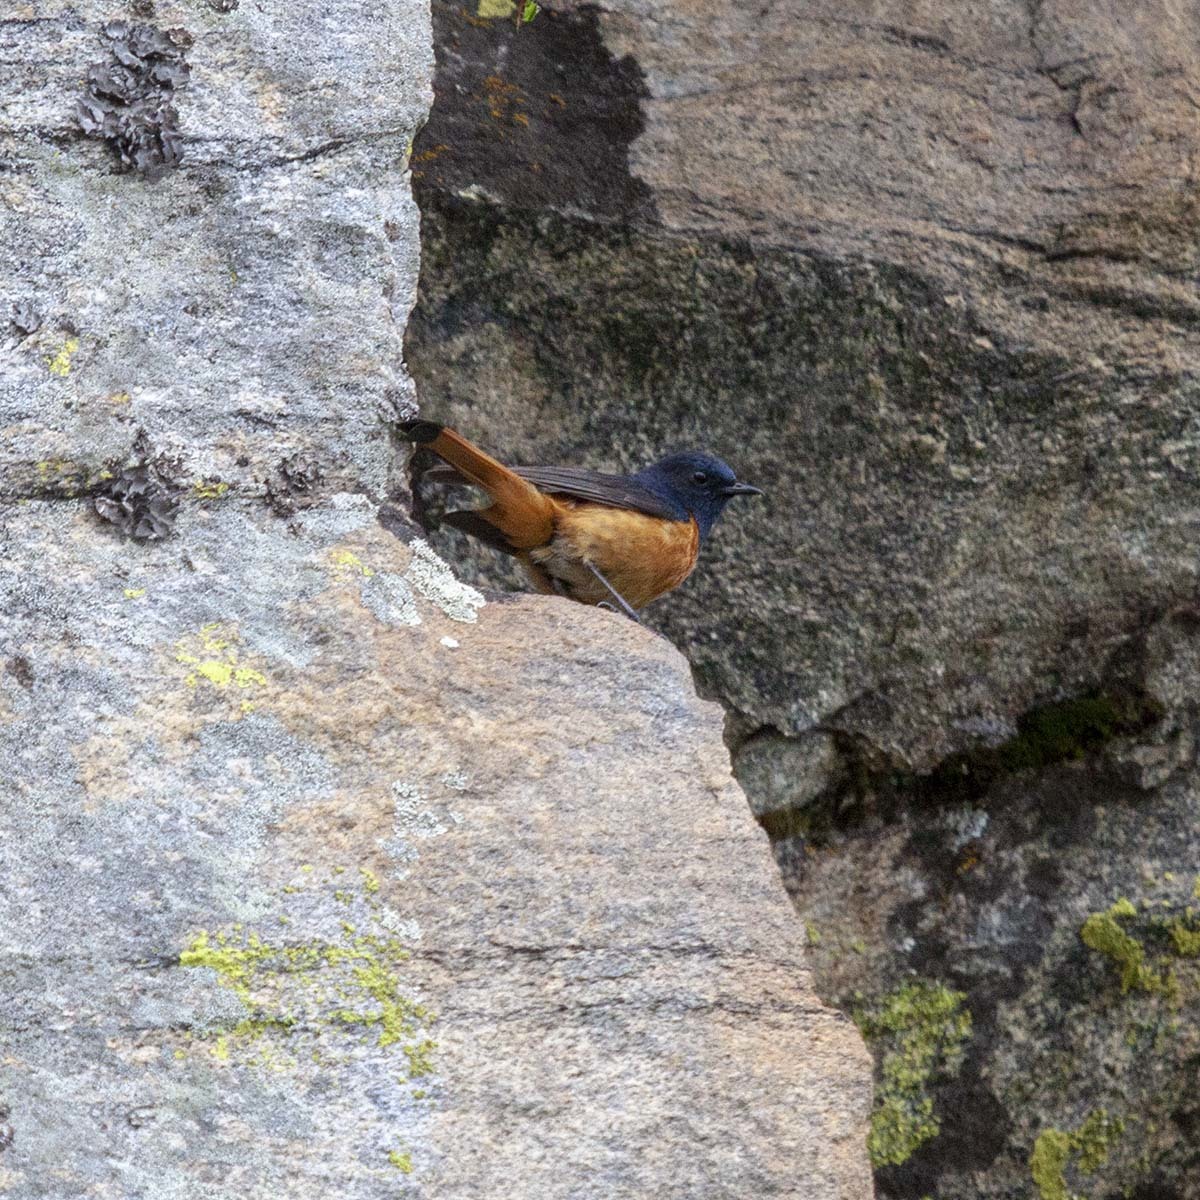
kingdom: Animalia
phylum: Chordata
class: Aves
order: Passeriformes
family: Muscicapidae
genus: Phoenicurus
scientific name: Phoenicurus frontalis
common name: Blue-fronted redstart
